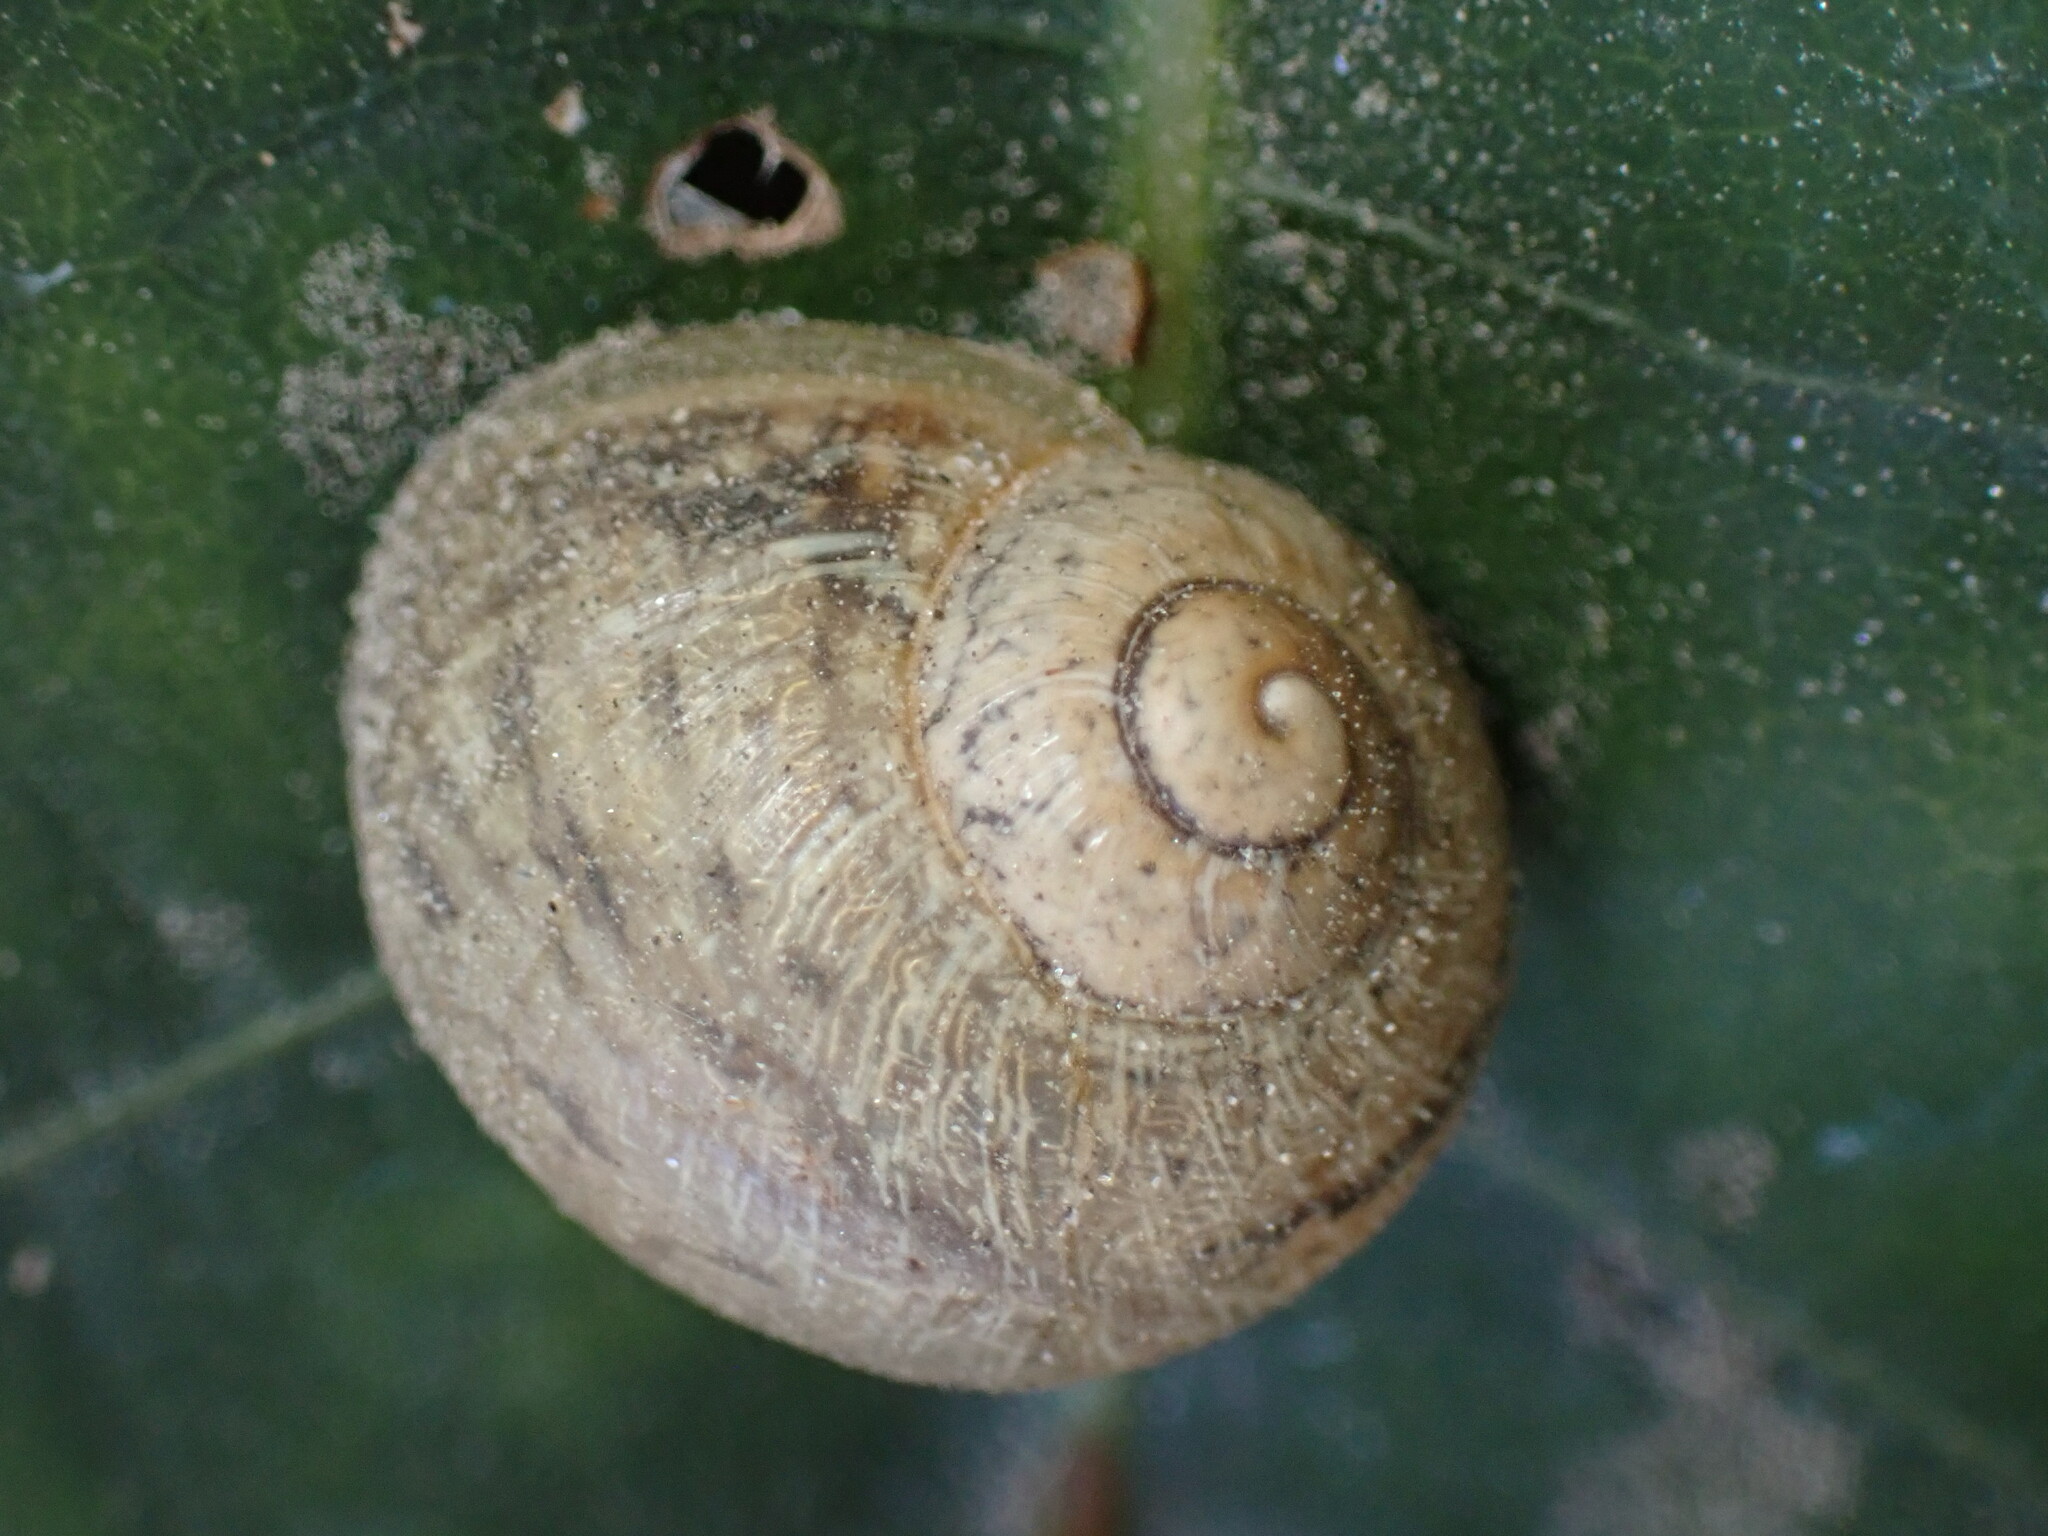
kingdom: Animalia
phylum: Mollusca
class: Gastropoda
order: Stylommatophora
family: Helicidae
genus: Cornu
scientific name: Cornu aspersum
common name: Brown garden snail
